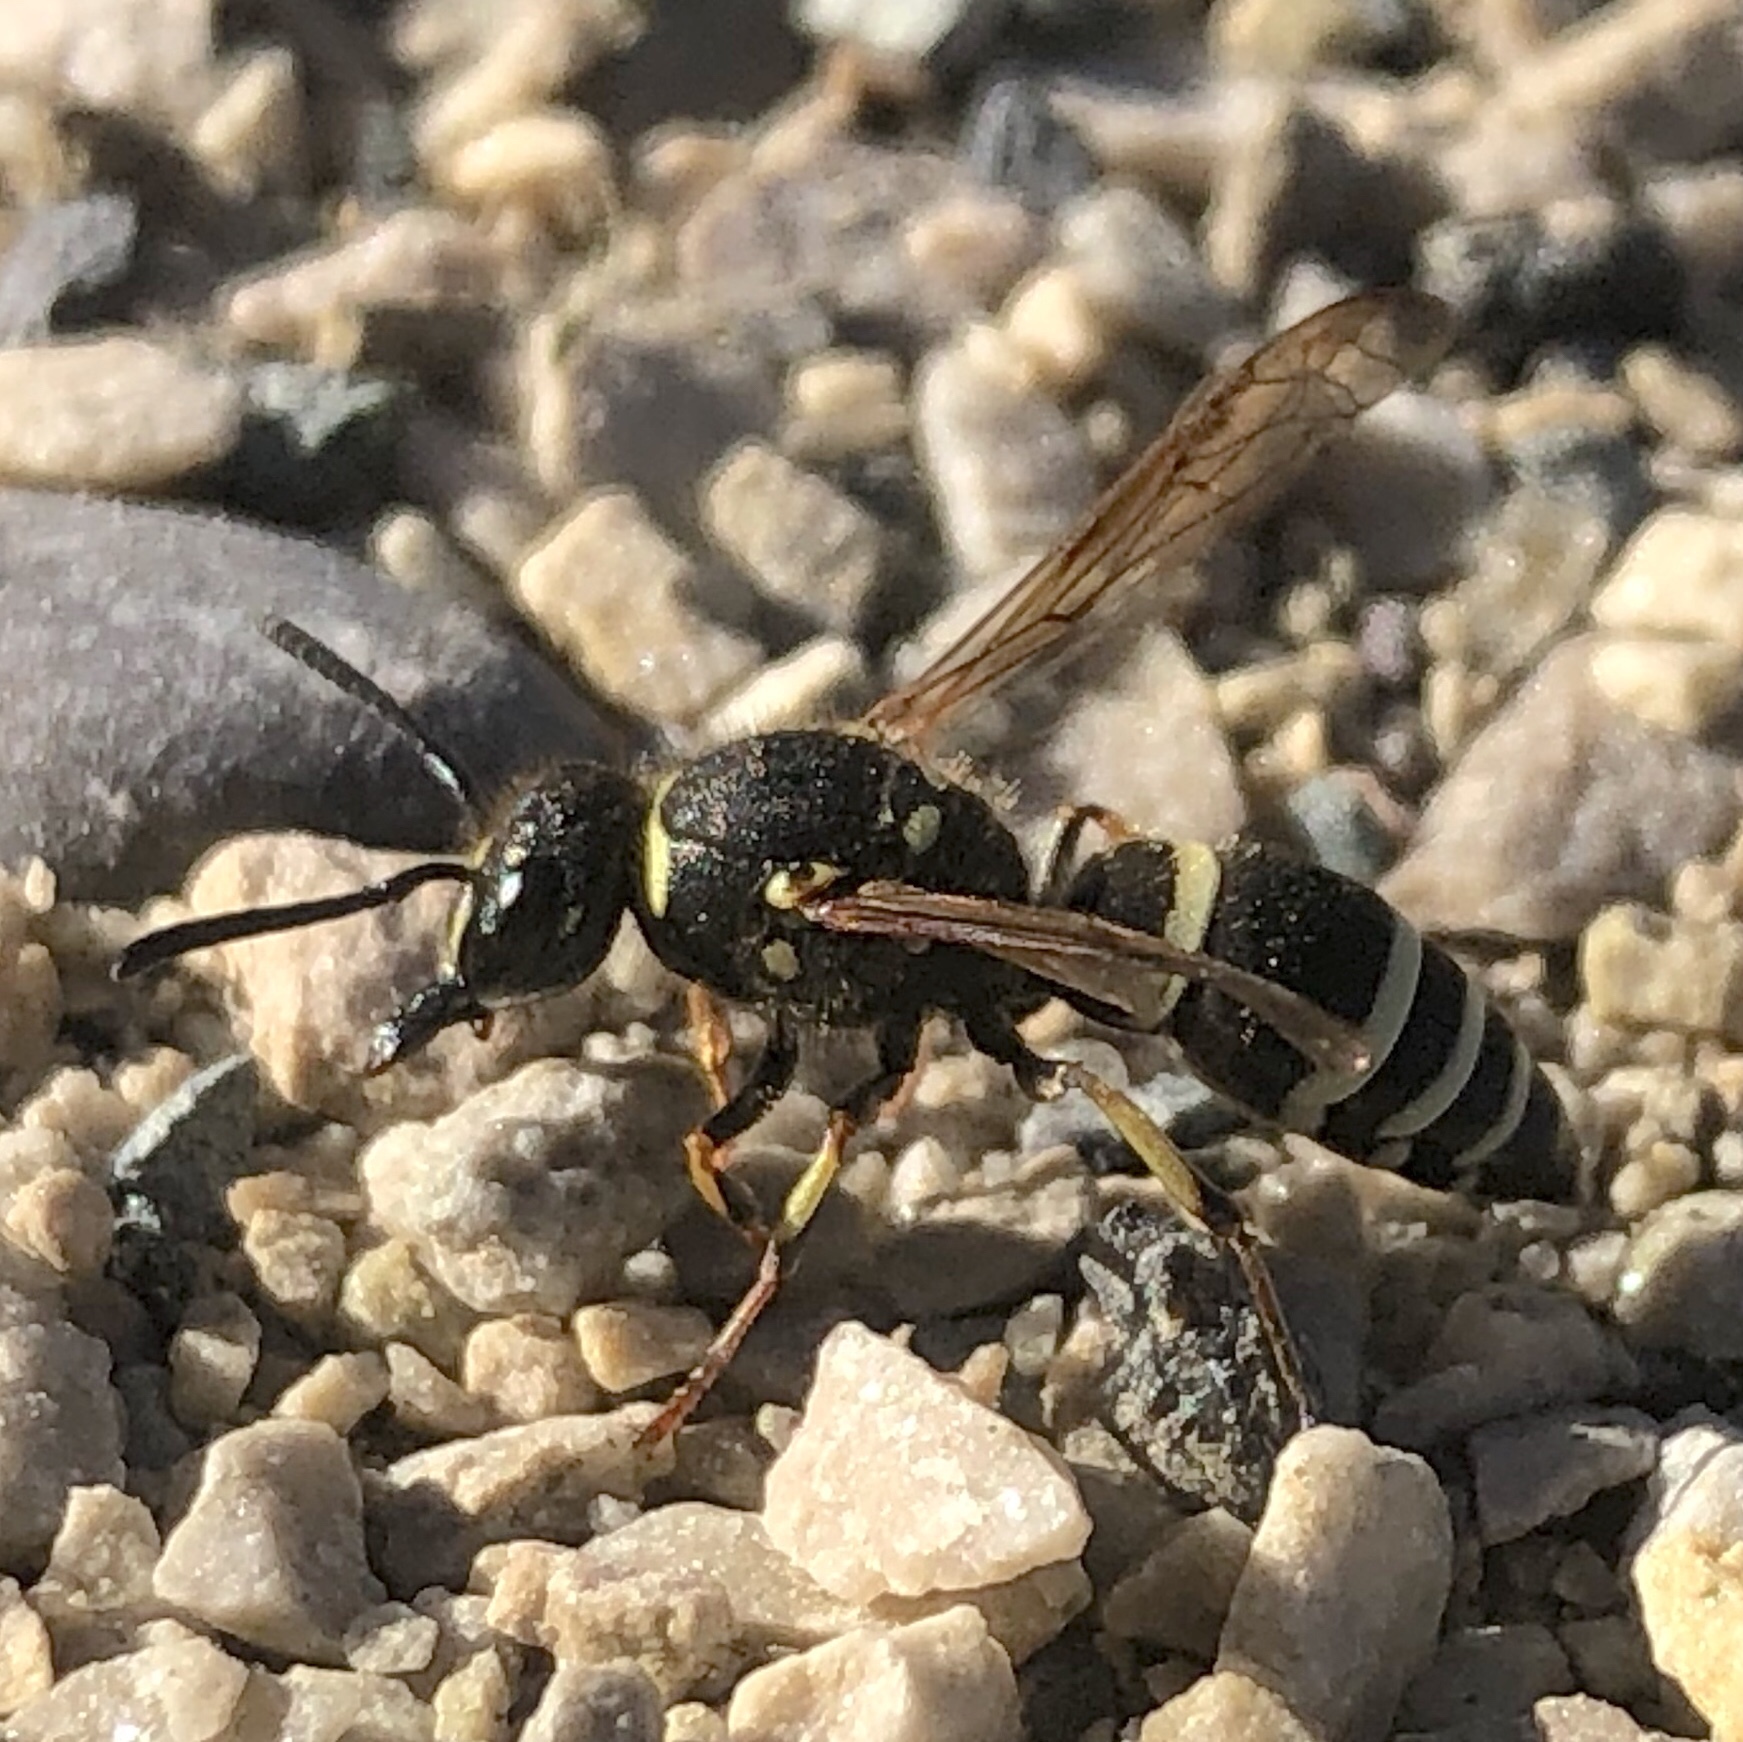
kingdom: Animalia
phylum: Arthropoda
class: Insecta
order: Hymenoptera
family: Vespidae
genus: Ancistrocerus
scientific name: Ancistrocerus albophaleratus
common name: White-banded potter wasp
